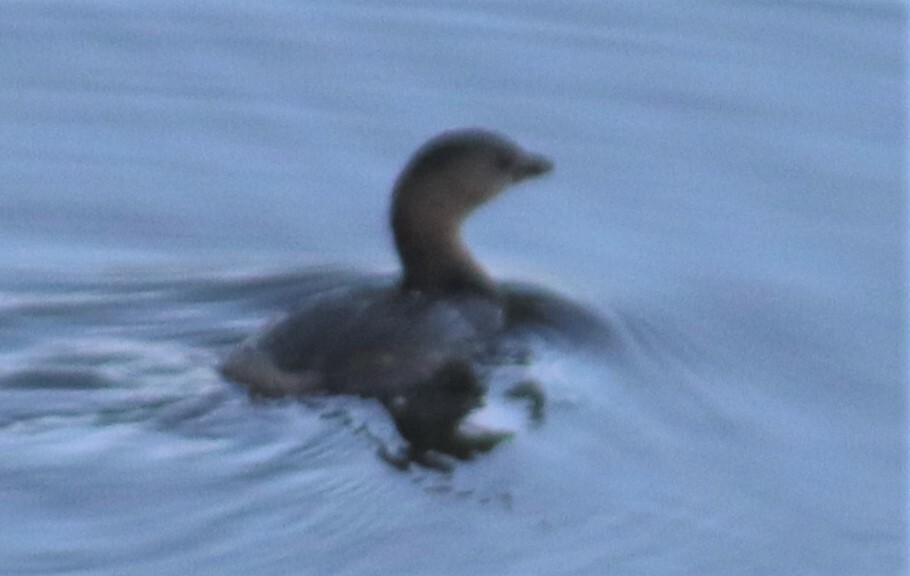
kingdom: Animalia
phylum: Chordata
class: Aves
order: Podicipediformes
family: Podicipedidae
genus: Podilymbus
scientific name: Podilymbus podiceps
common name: Pied-billed grebe
